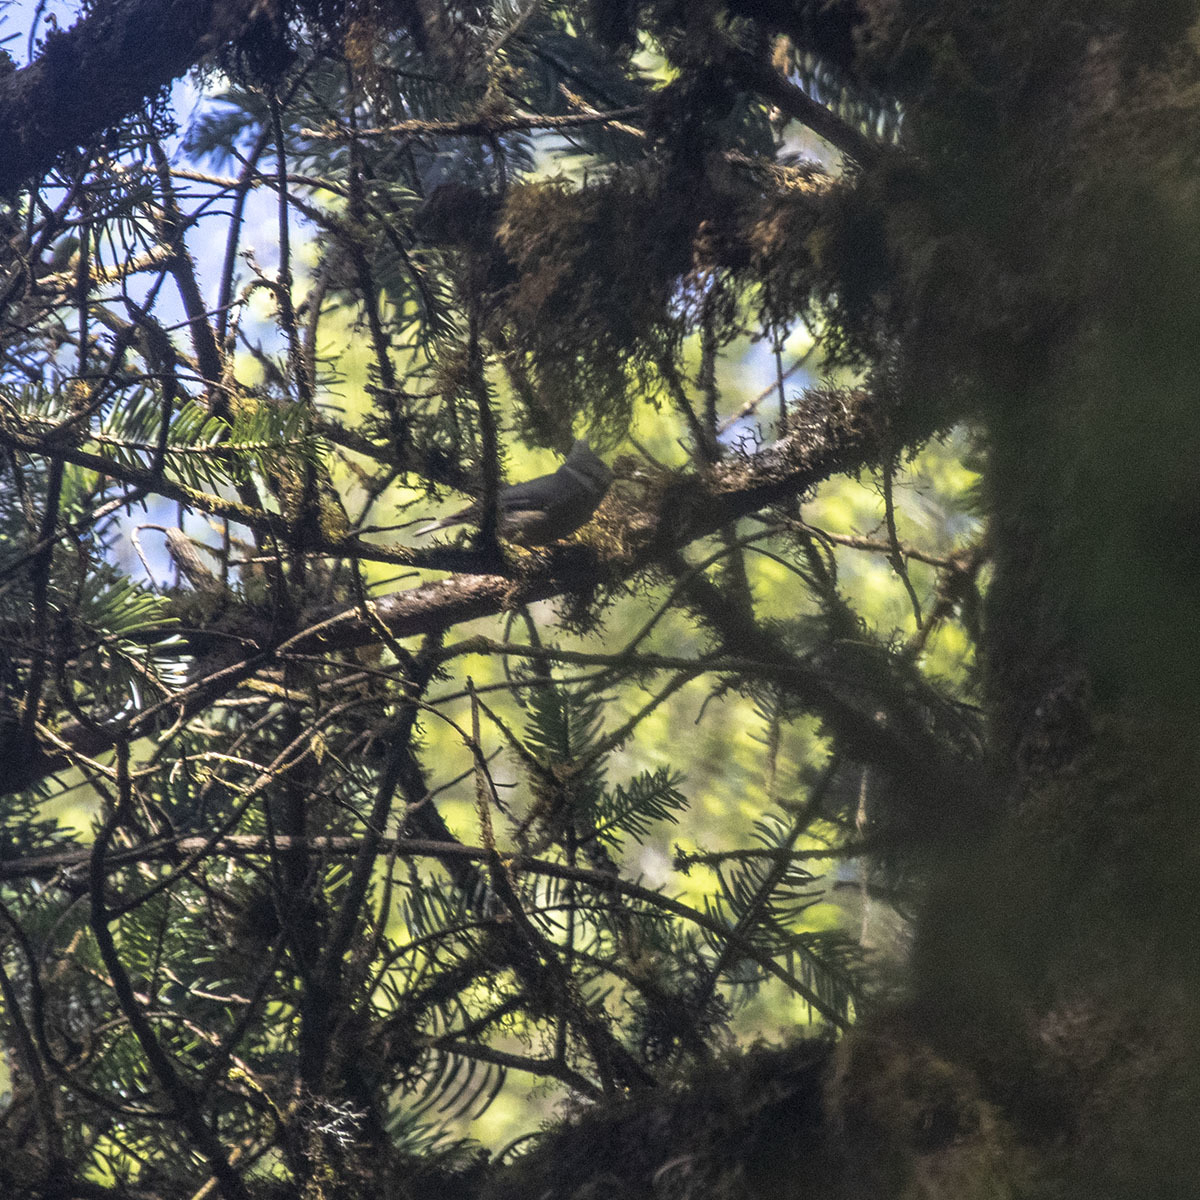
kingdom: Animalia
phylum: Chordata
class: Aves
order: Passeriformes
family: Paridae
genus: Lophophanes
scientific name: Lophophanes dichrous
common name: Grey crested tit
